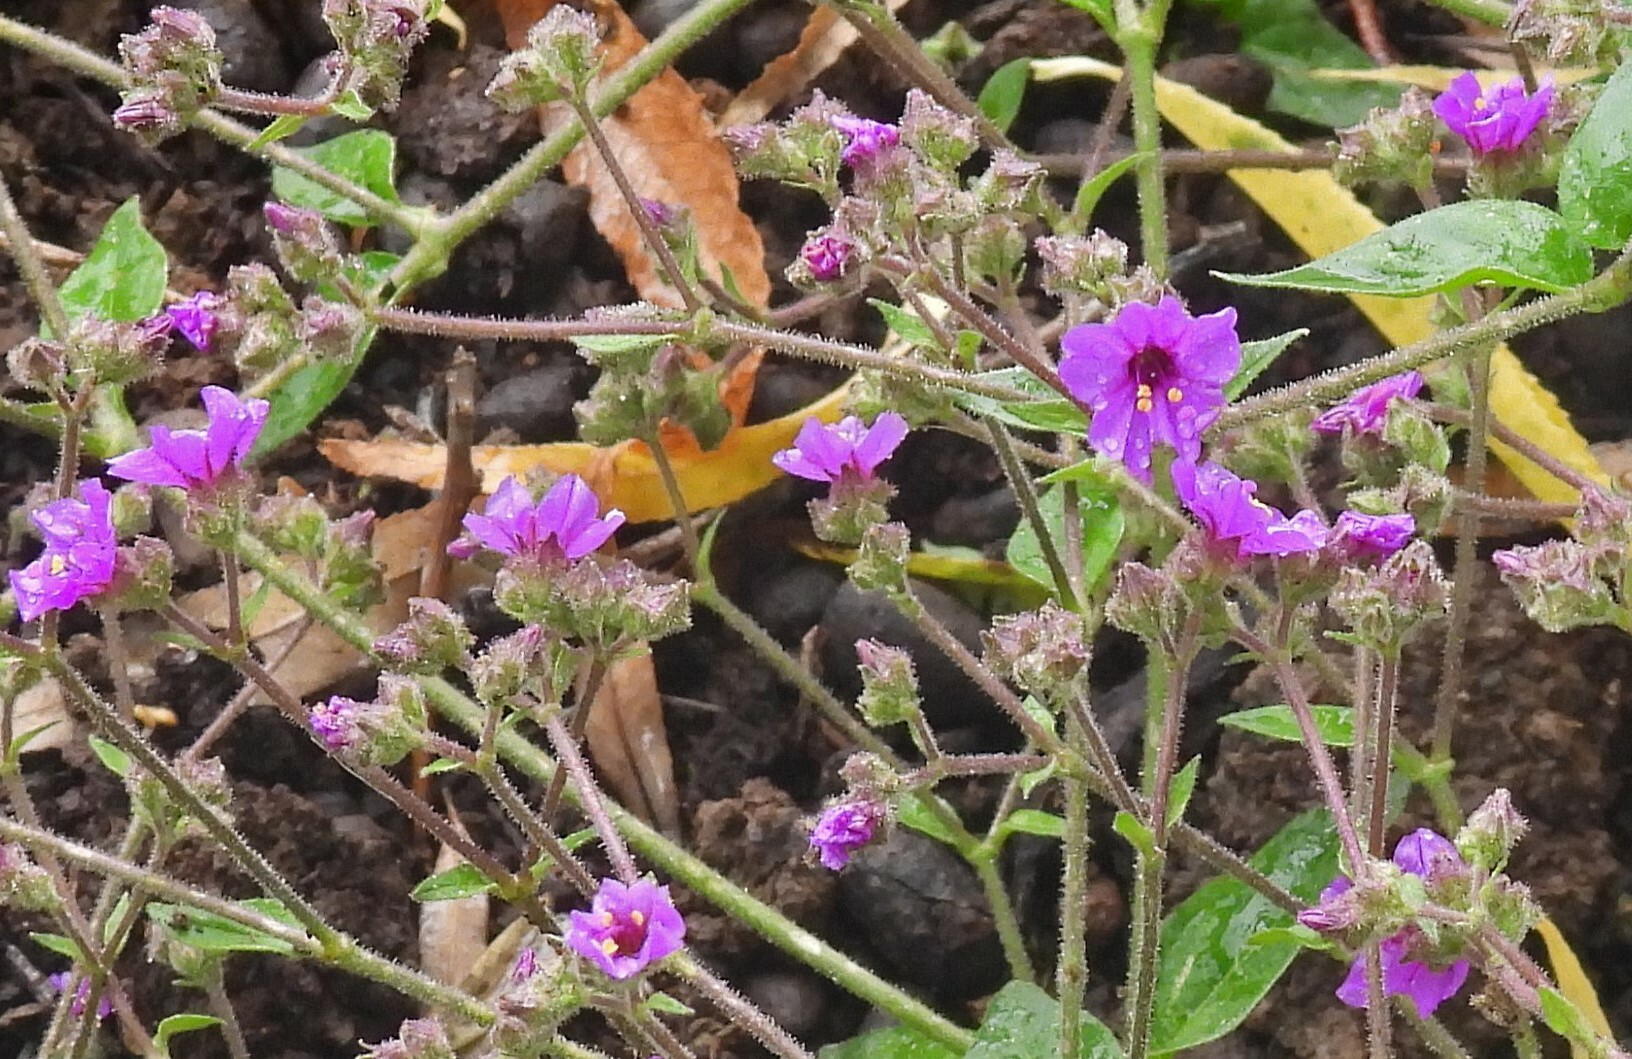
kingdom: Plantae
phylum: Tracheophyta
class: Magnoliopsida
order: Caryophyllales
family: Nyctaginaceae
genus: Mirabilis
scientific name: Mirabilis ovata
